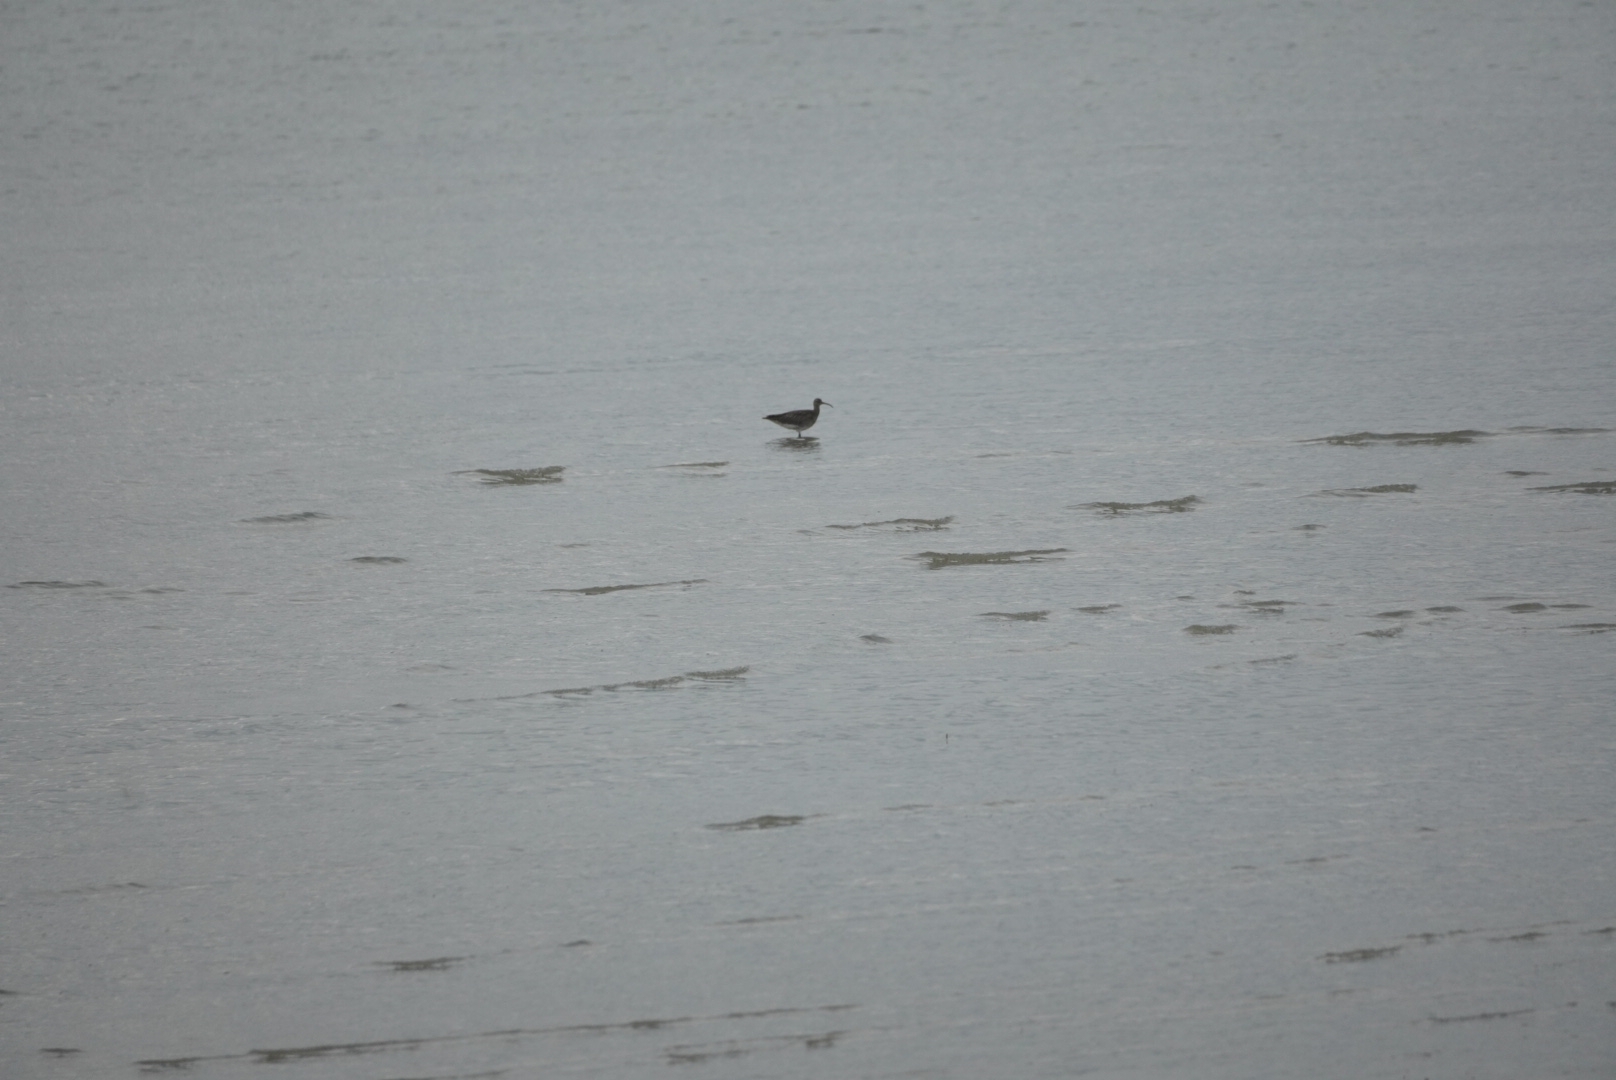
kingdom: Animalia
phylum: Chordata
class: Aves
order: Charadriiformes
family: Scolopacidae
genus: Numenius
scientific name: Numenius phaeopus
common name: Whimbrel
